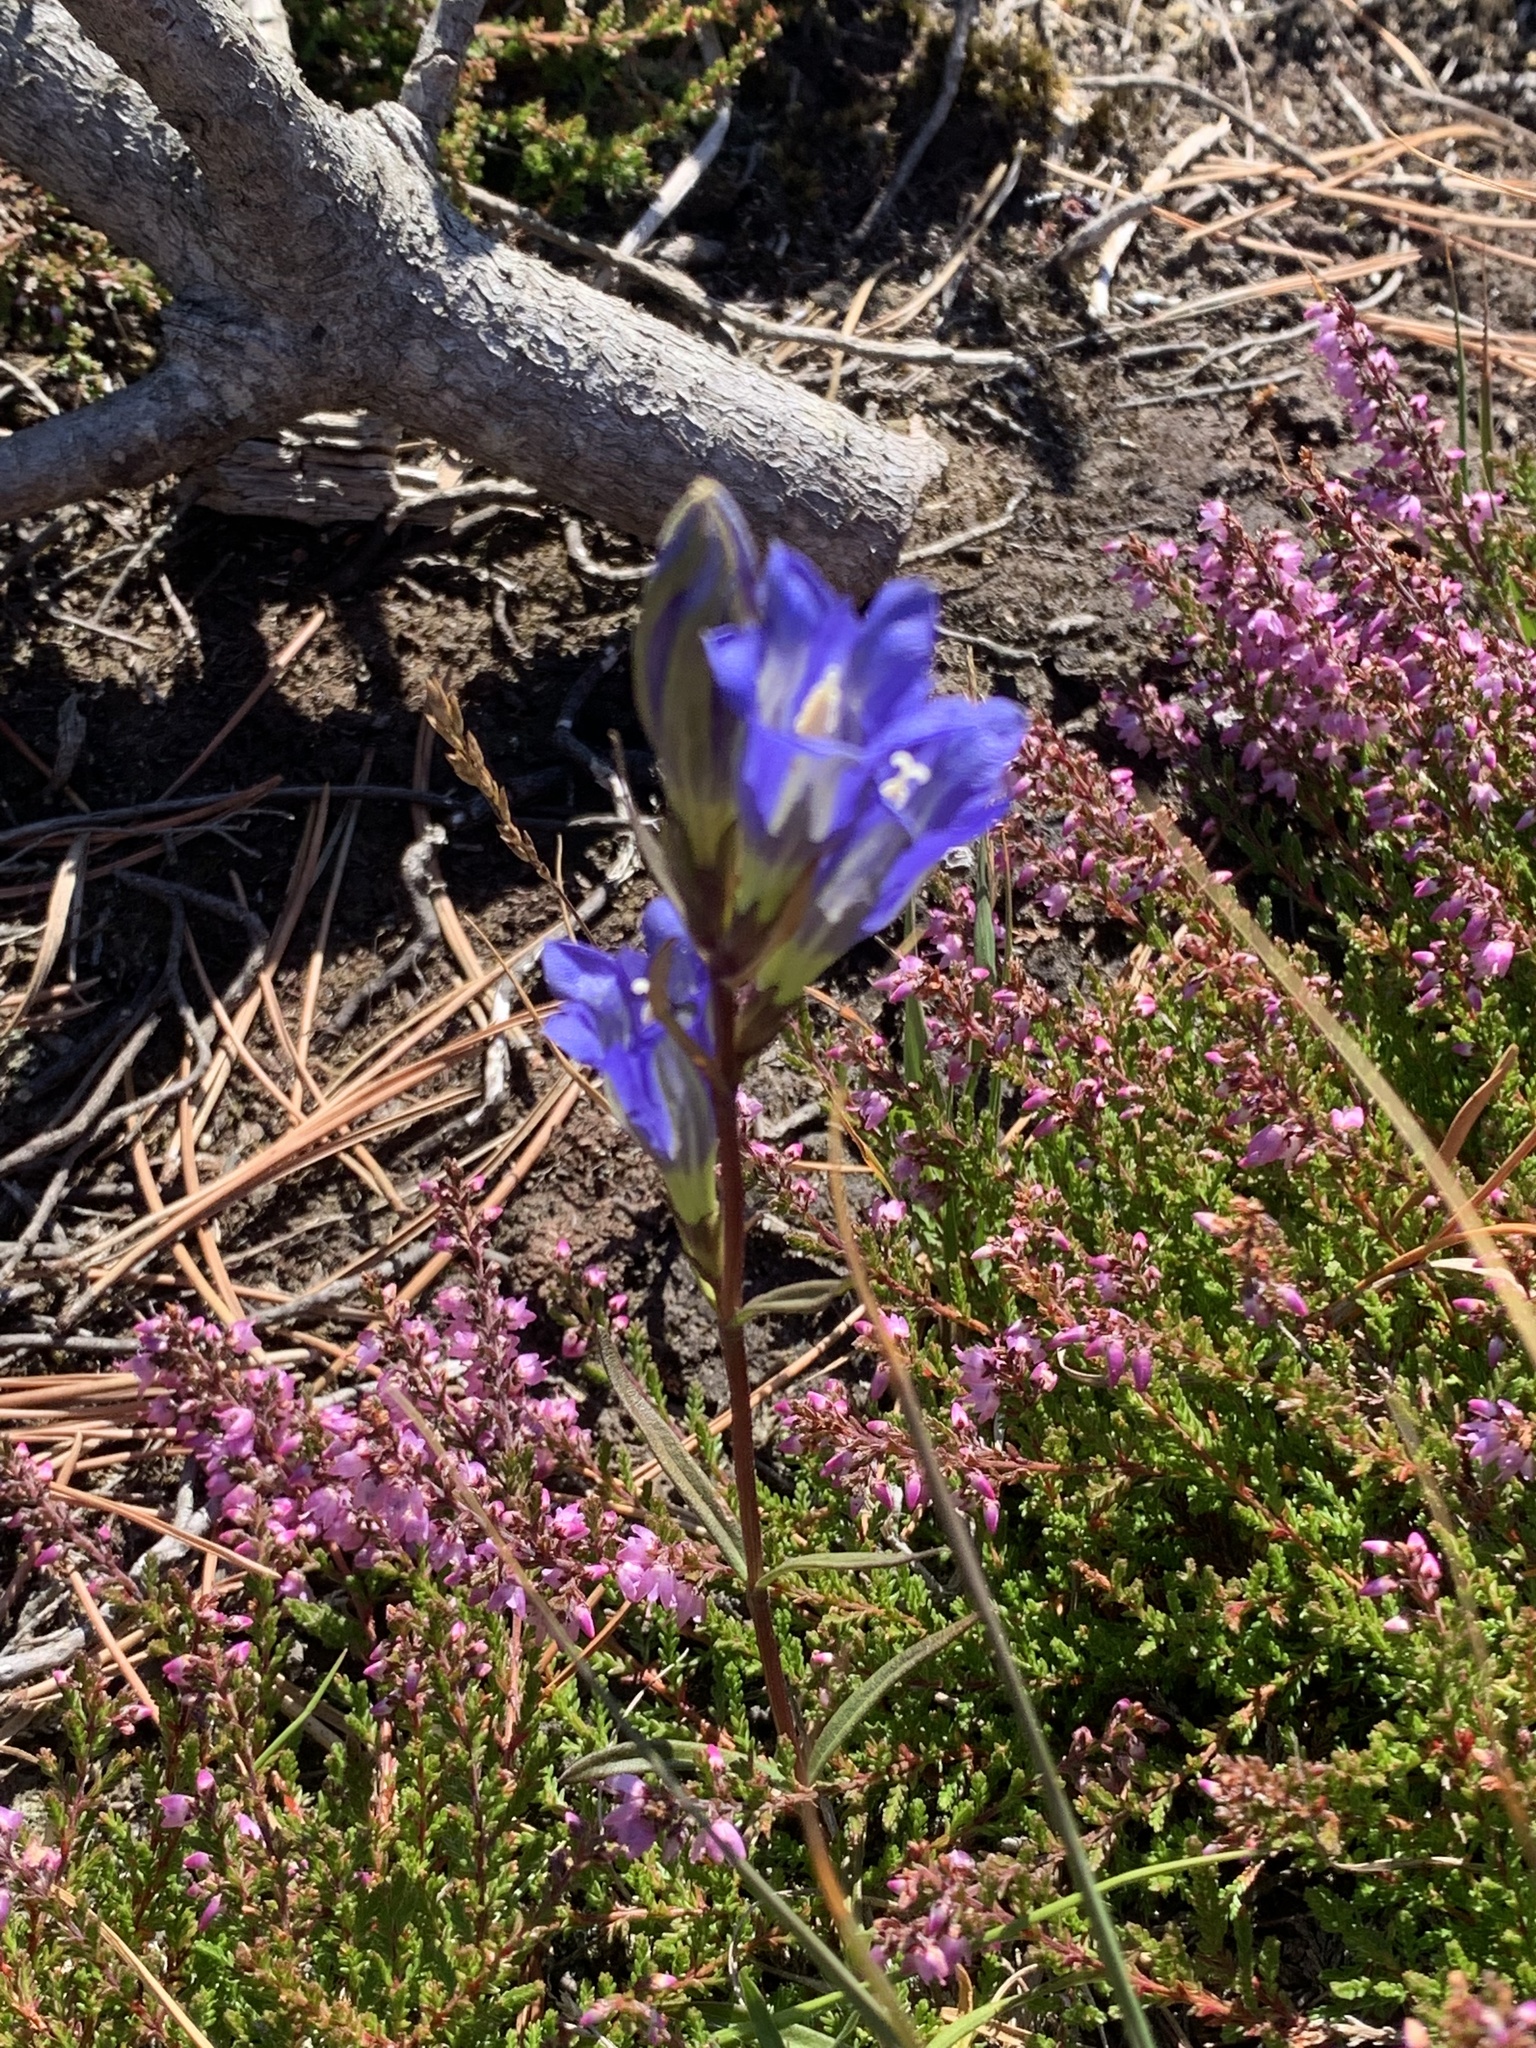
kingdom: Plantae
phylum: Tracheophyta
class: Magnoliopsida
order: Gentianales
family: Gentianaceae
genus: Gentiana
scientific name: Gentiana pneumonanthe
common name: Marsh gentian
